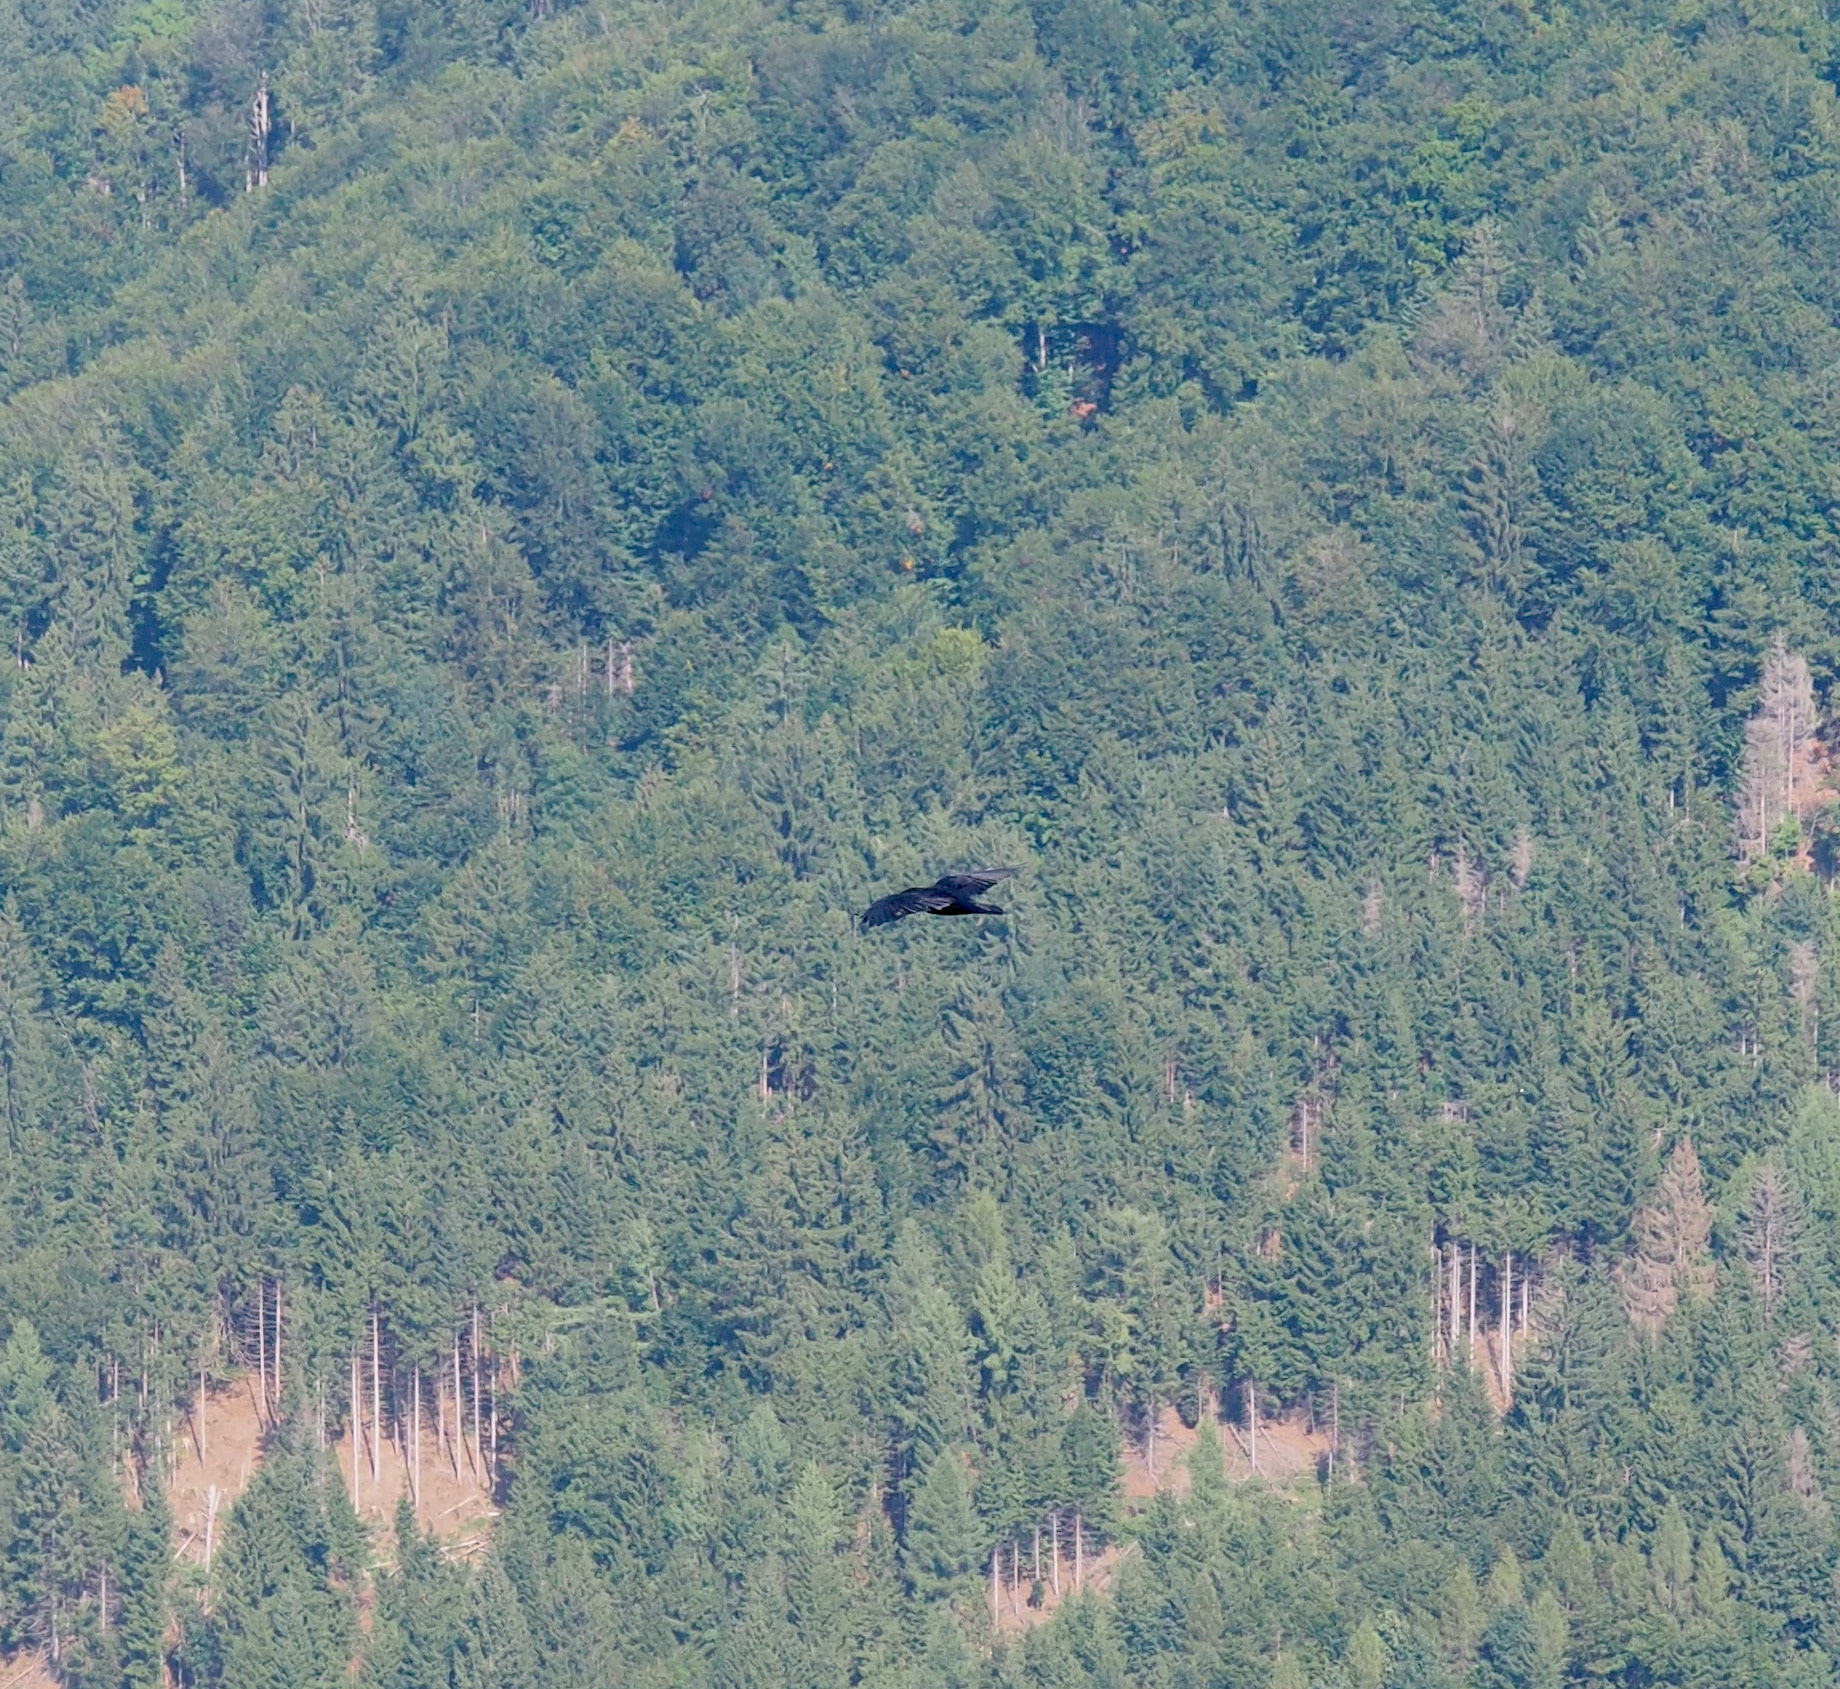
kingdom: Animalia
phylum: Chordata
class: Aves
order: Passeriformes
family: Corvidae
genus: Corvus
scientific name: Corvus corax
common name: Common raven
